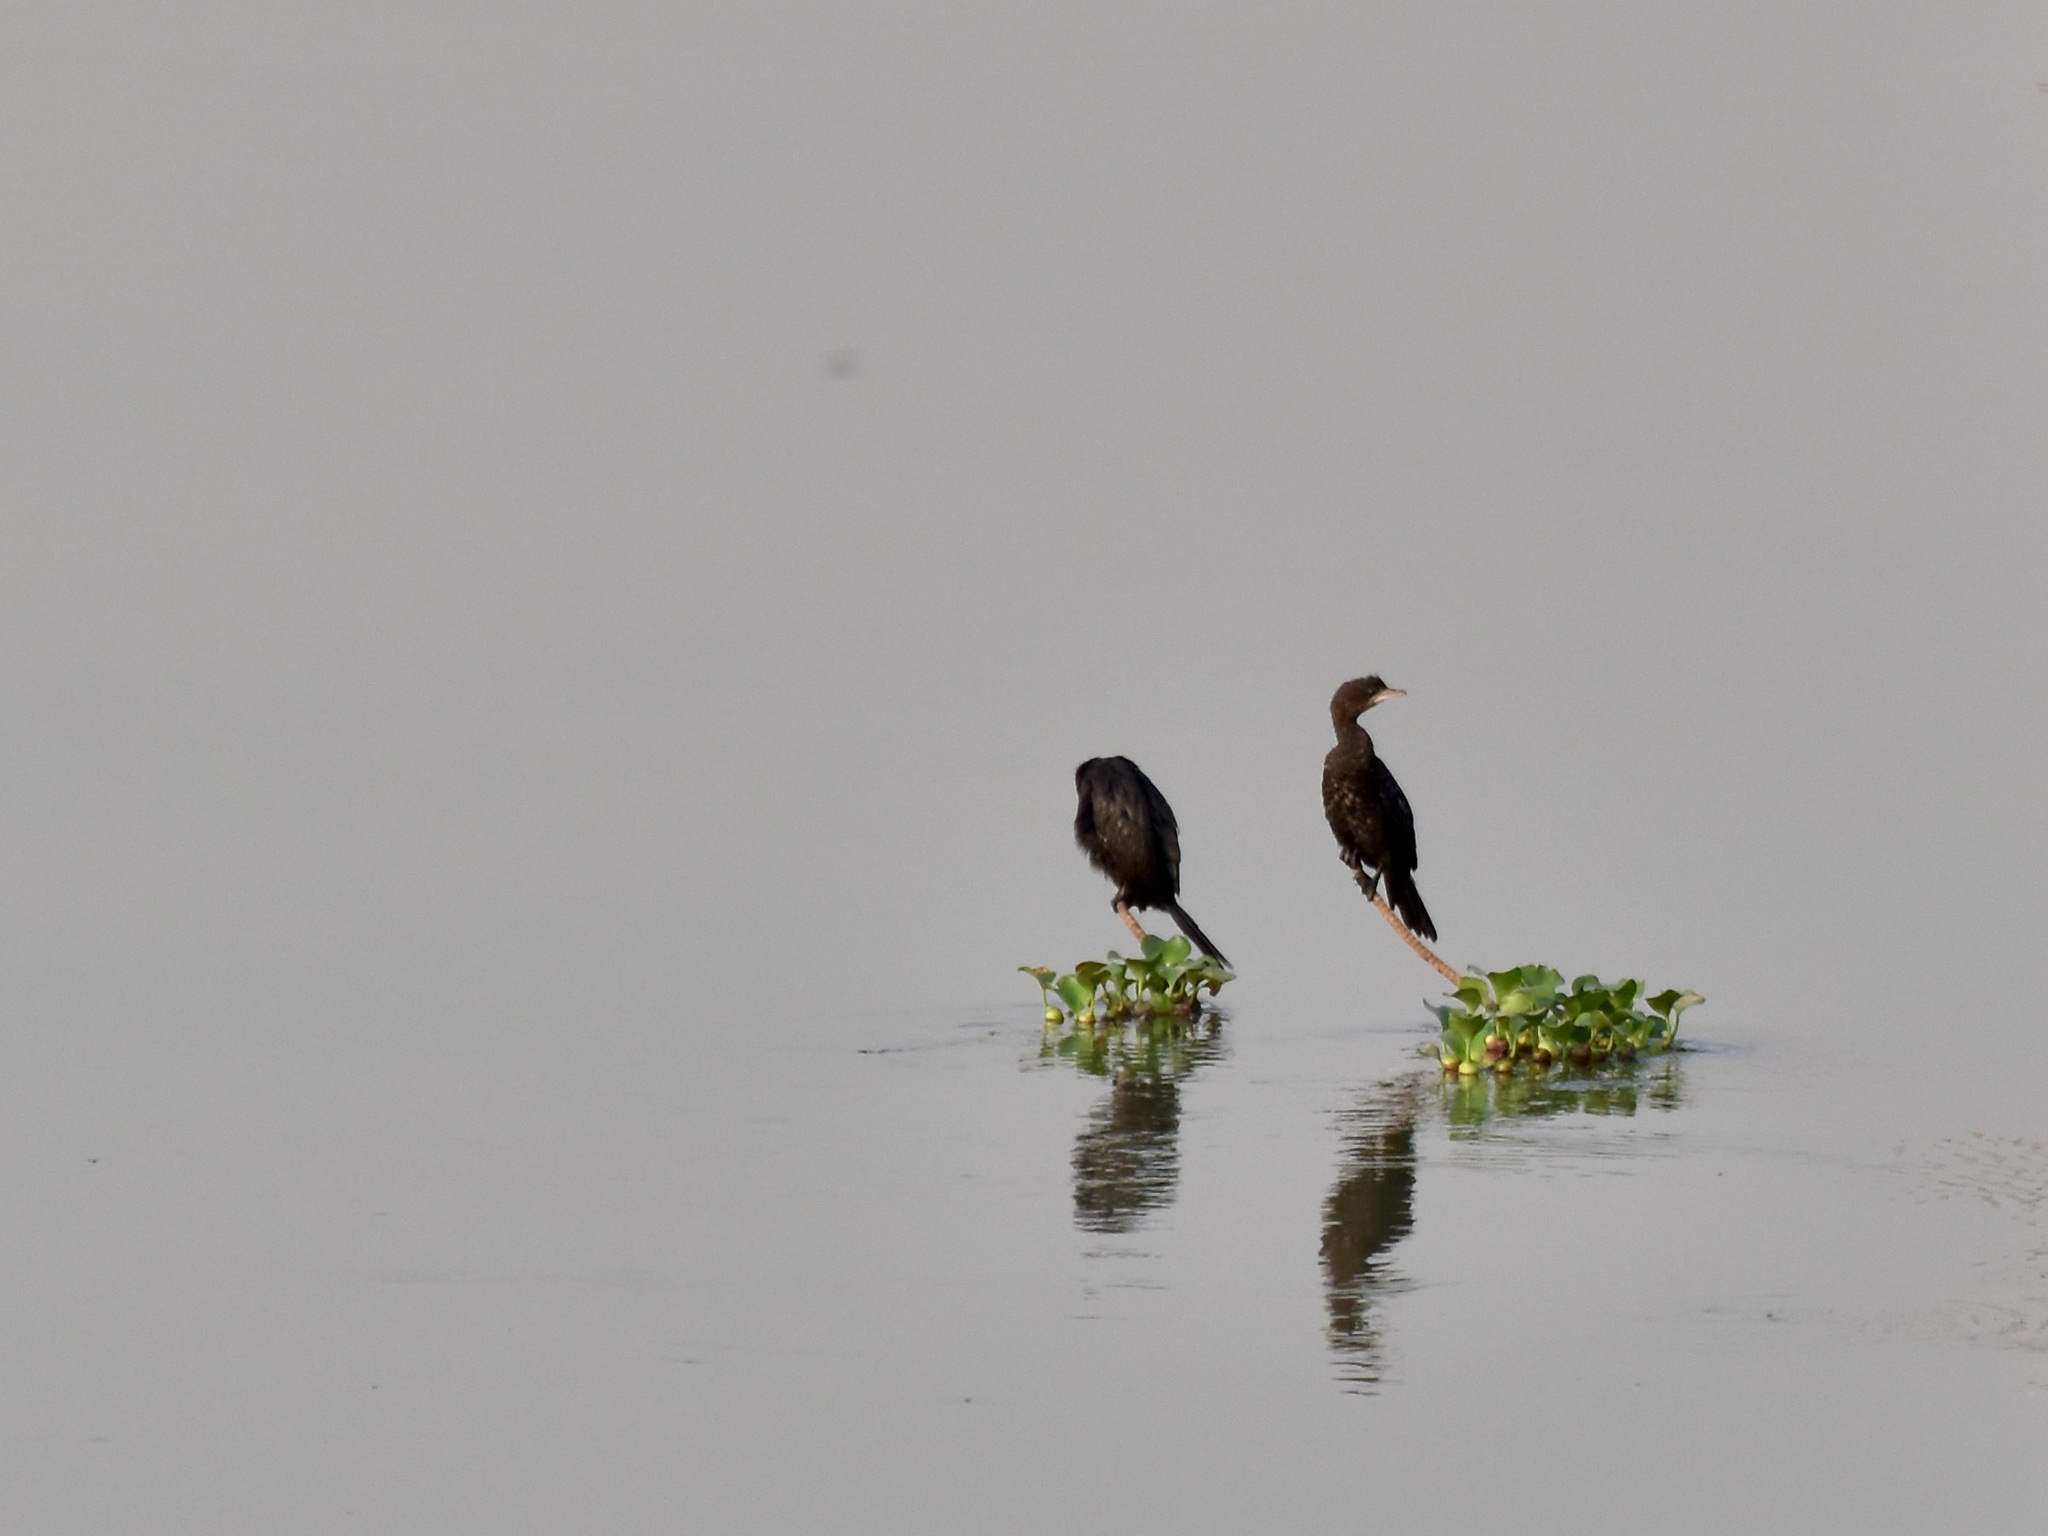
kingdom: Animalia
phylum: Chordata
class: Aves
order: Suliformes
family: Phalacrocoracidae
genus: Microcarbo
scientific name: Microcarbo pygmaeus
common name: Pygmy cormorant
